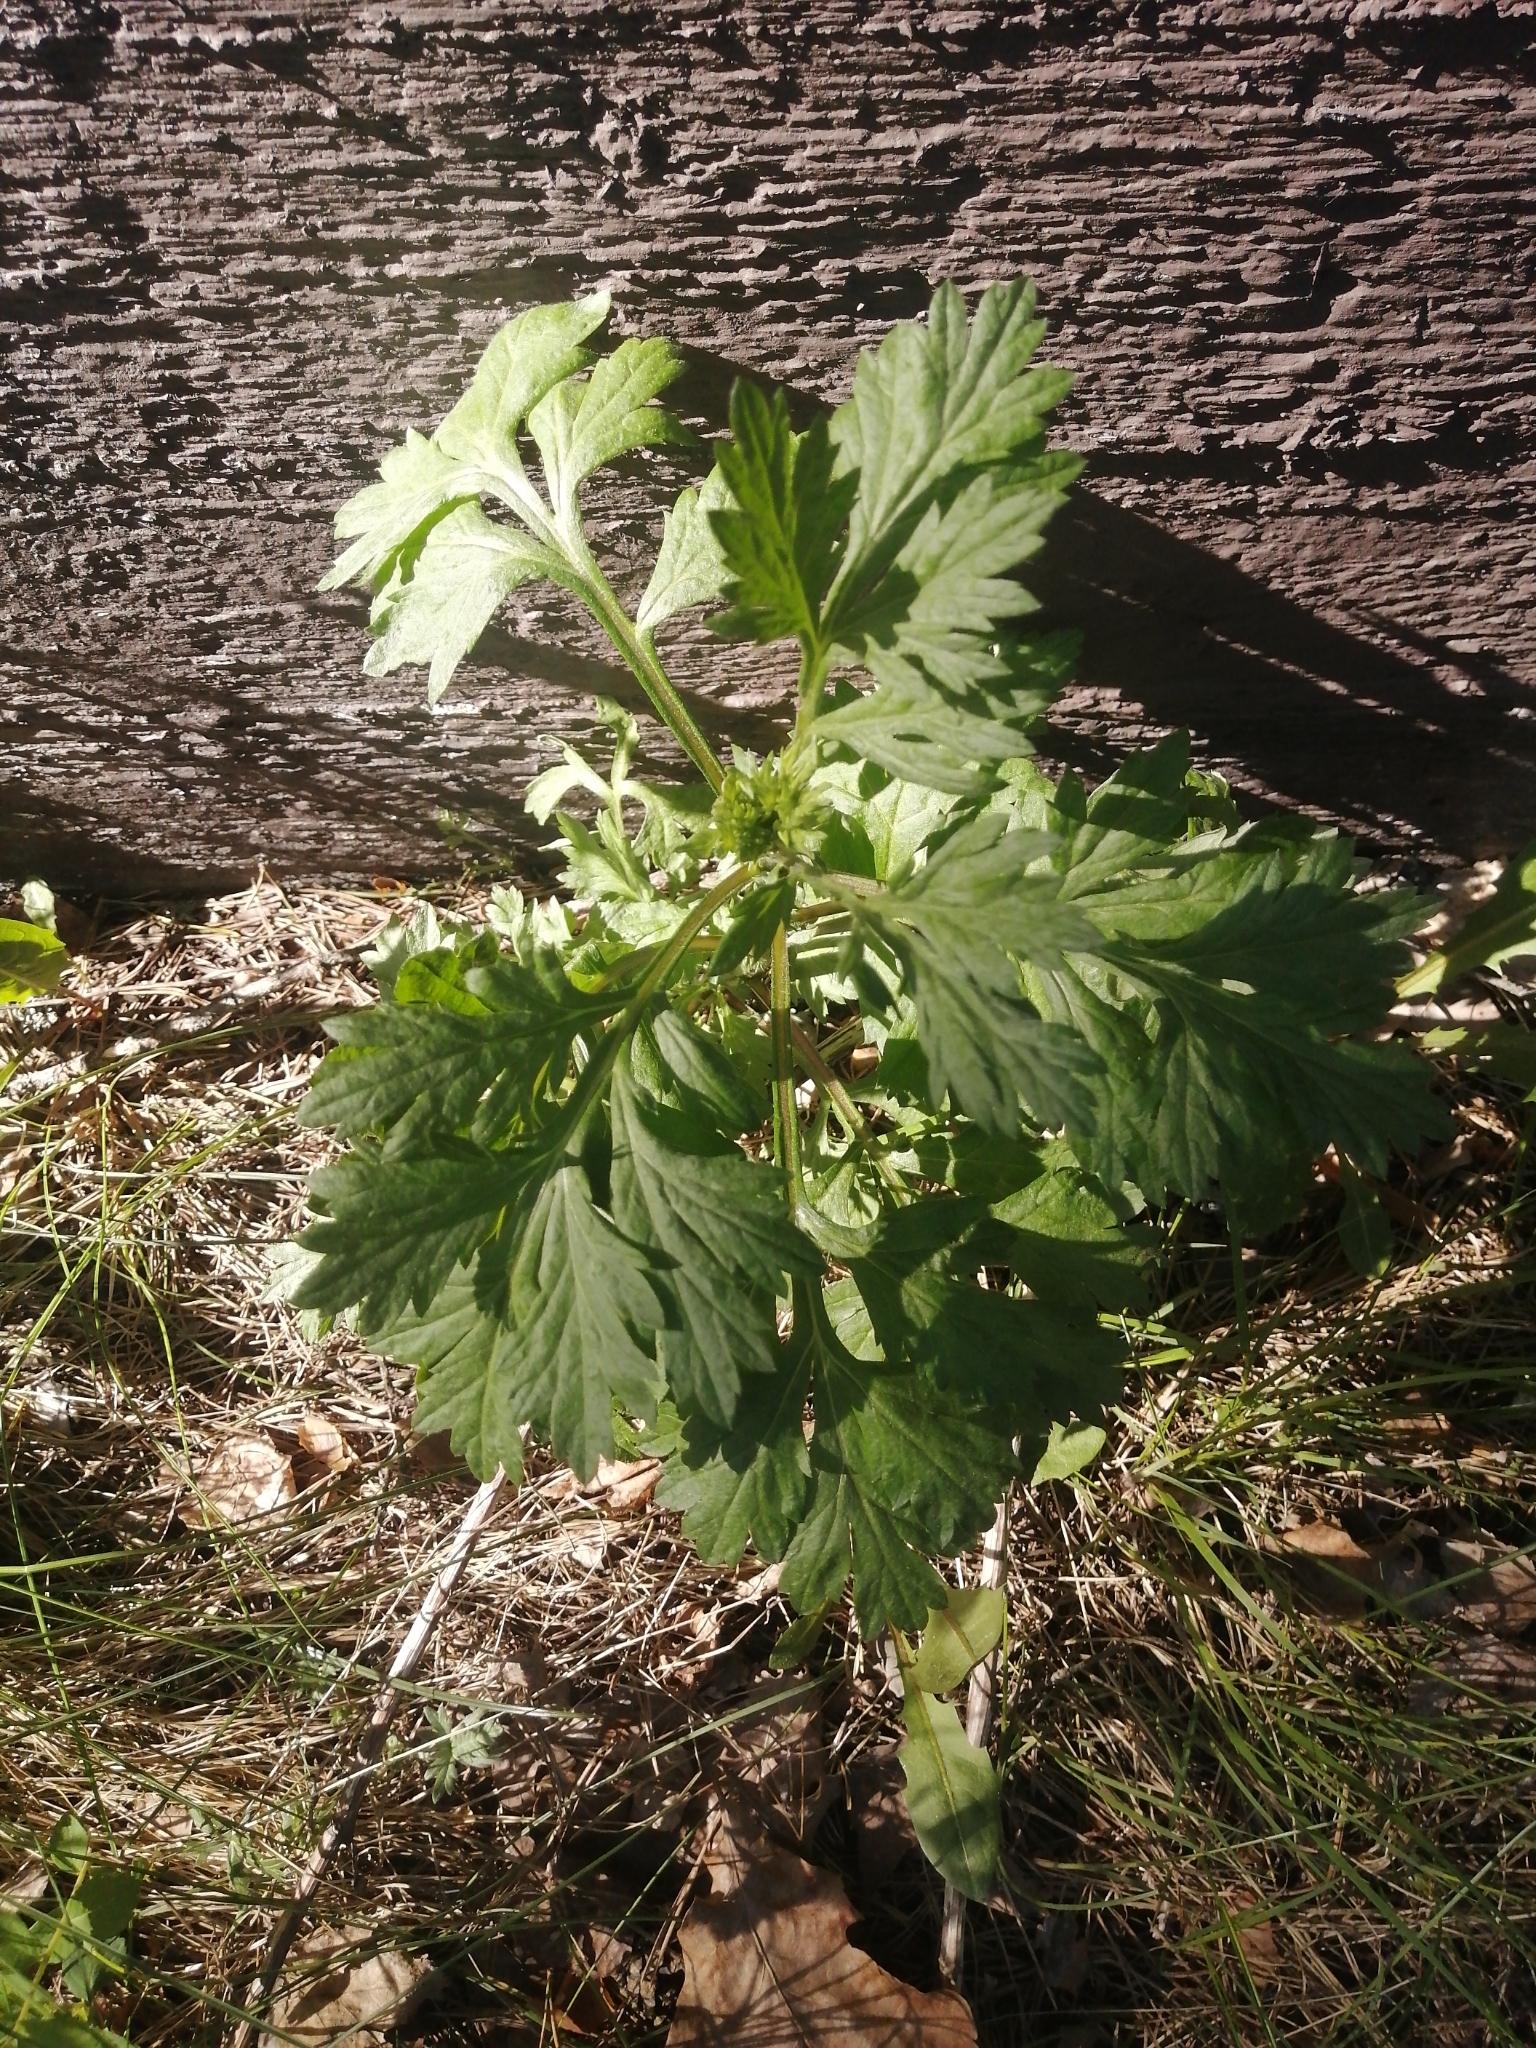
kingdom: Plantae
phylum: Tracheophyta
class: Magnoliopsida
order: Asterales
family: Asteraceae
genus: Artemisia
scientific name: Artemisia vulgaris
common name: Mugwort
